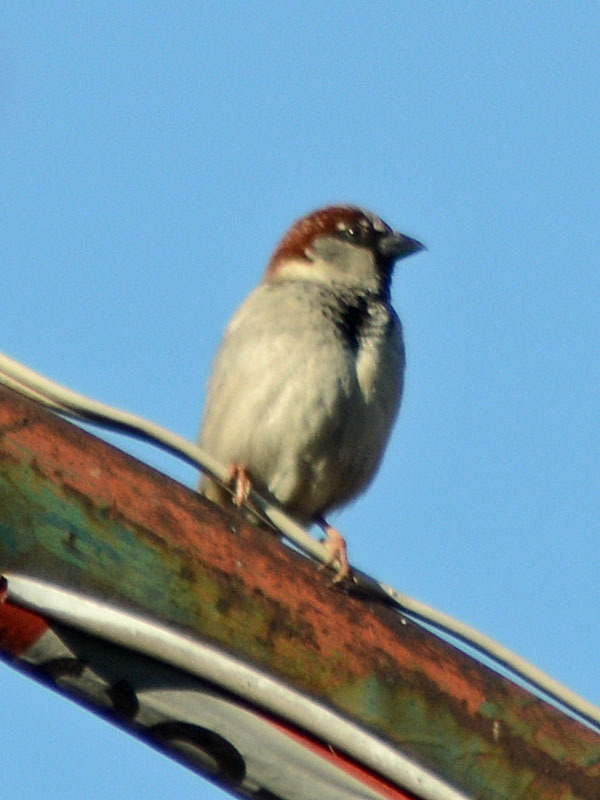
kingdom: Animalia
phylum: Chordata
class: Aves
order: Passeriformes
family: Passeridae
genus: Passer
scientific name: Passer domesticus
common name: House sparrow
